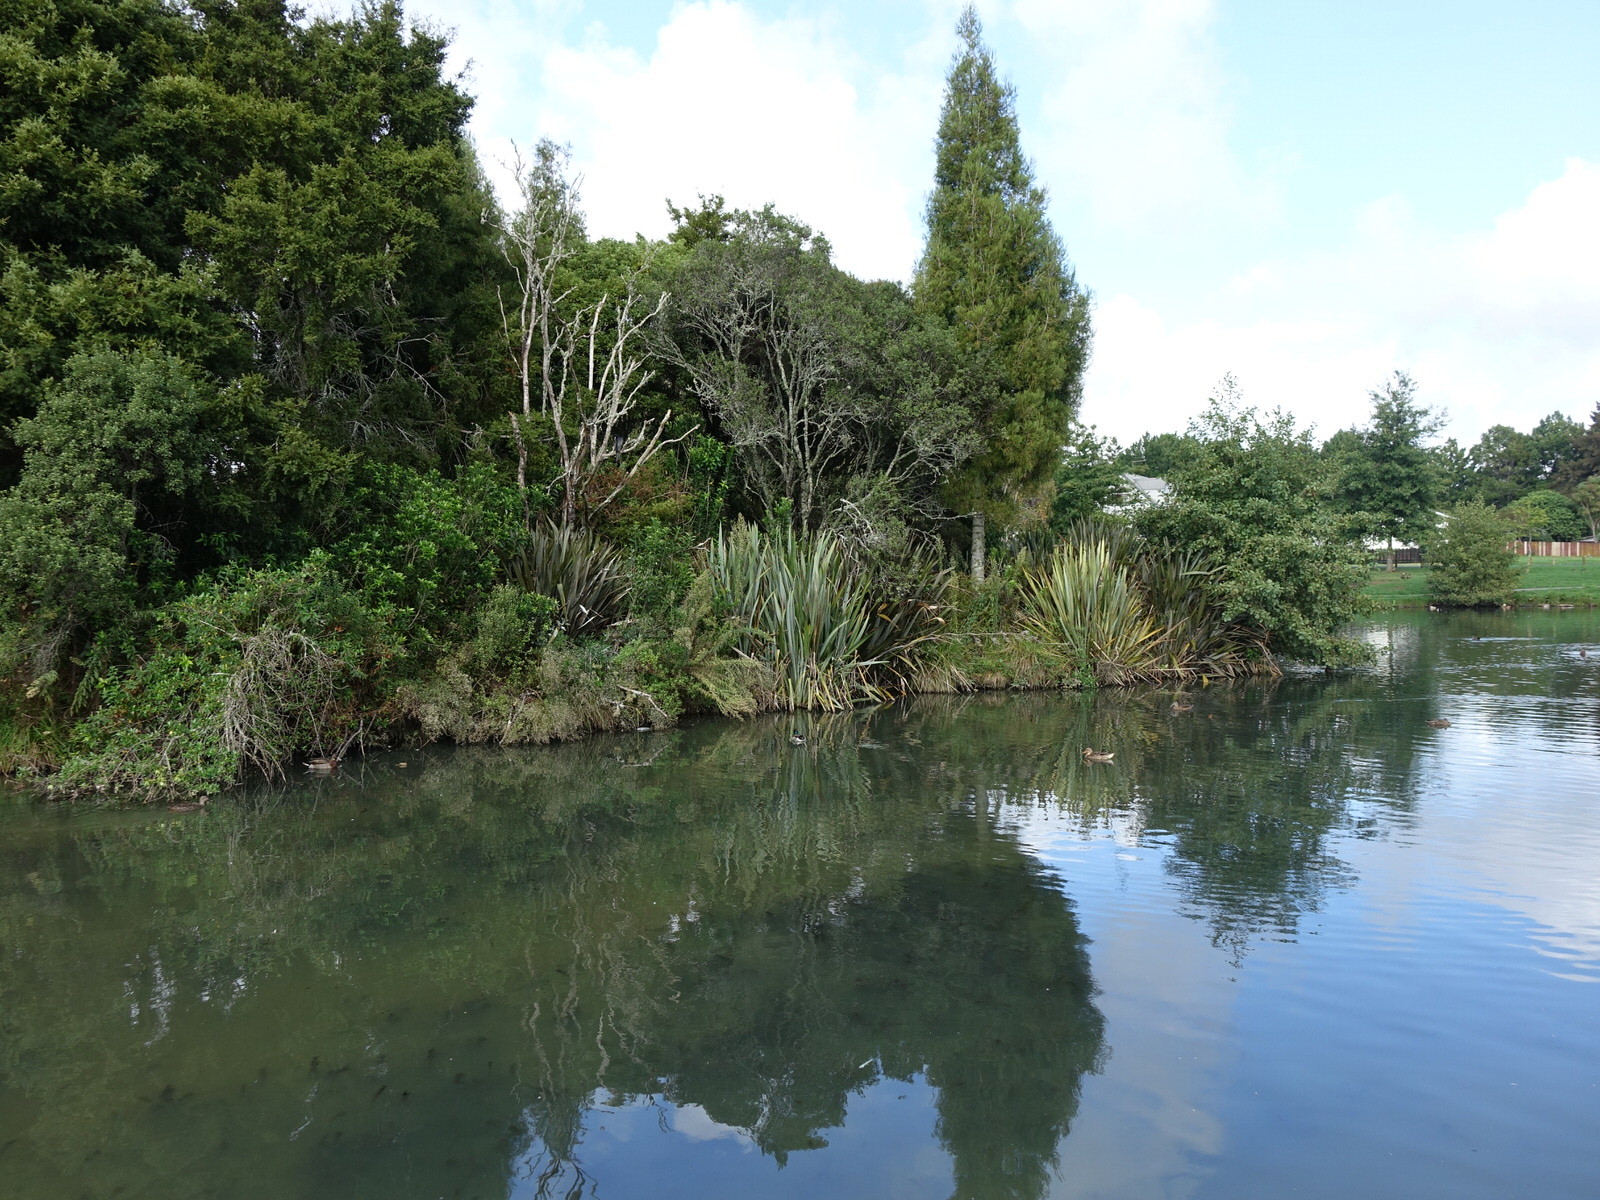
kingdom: Animalia
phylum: Chordata
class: Aves
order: Suliformes
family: Phalacrocoracidae
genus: Microcarbo
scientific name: Microcarbo melanoleucos
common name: Little pied cormorant
